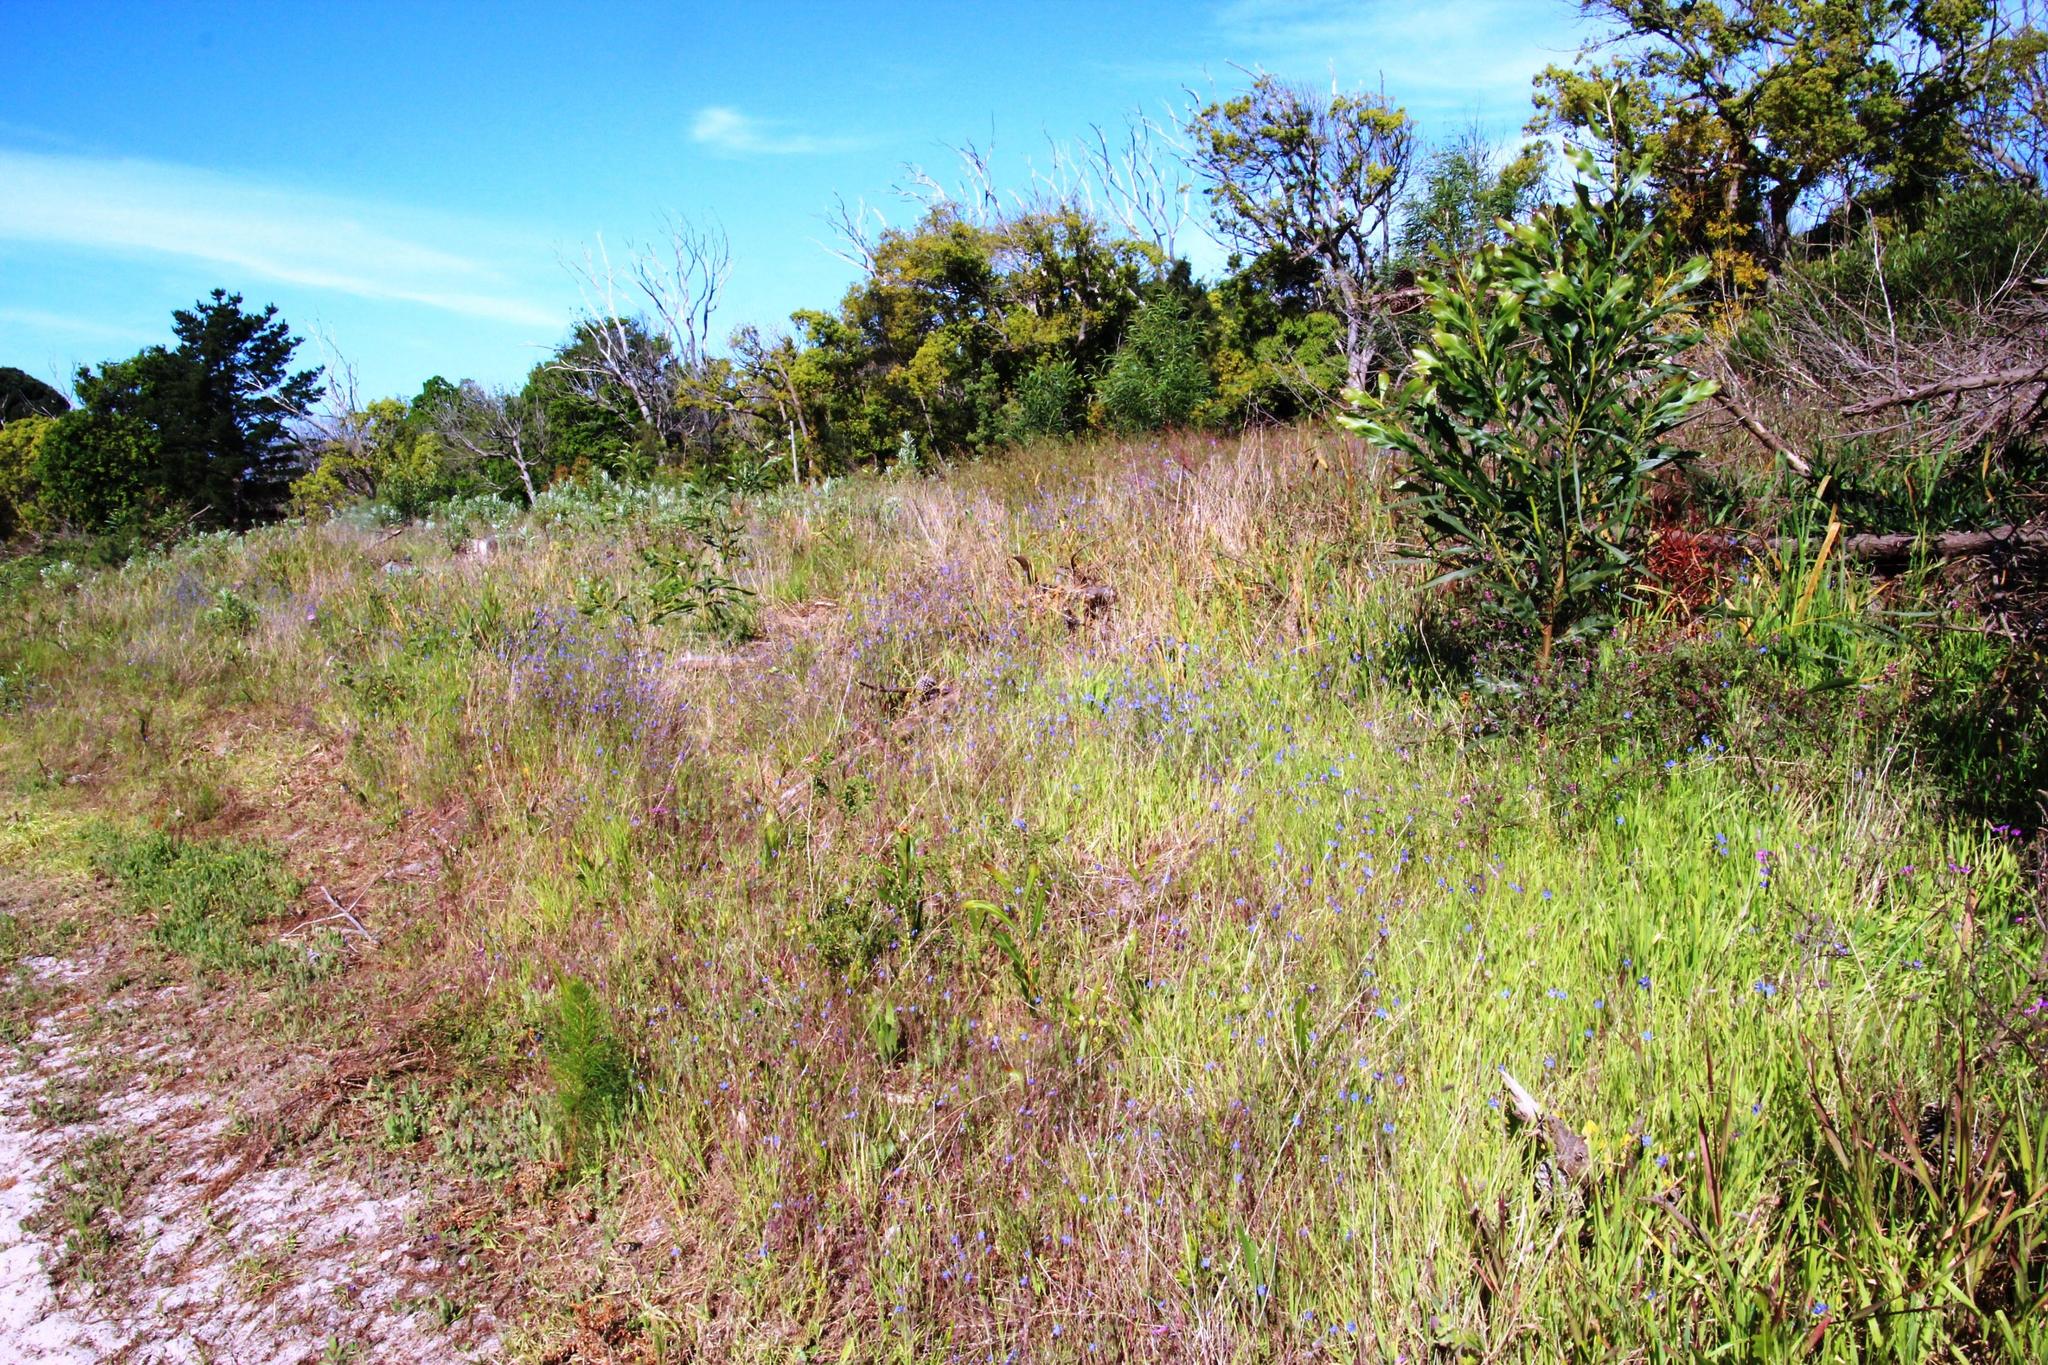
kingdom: Plantae
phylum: Tracheophyta
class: Magnoliopsida
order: Brassicales
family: Brassicaceae
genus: Heliophila
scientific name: Heliophila africana
